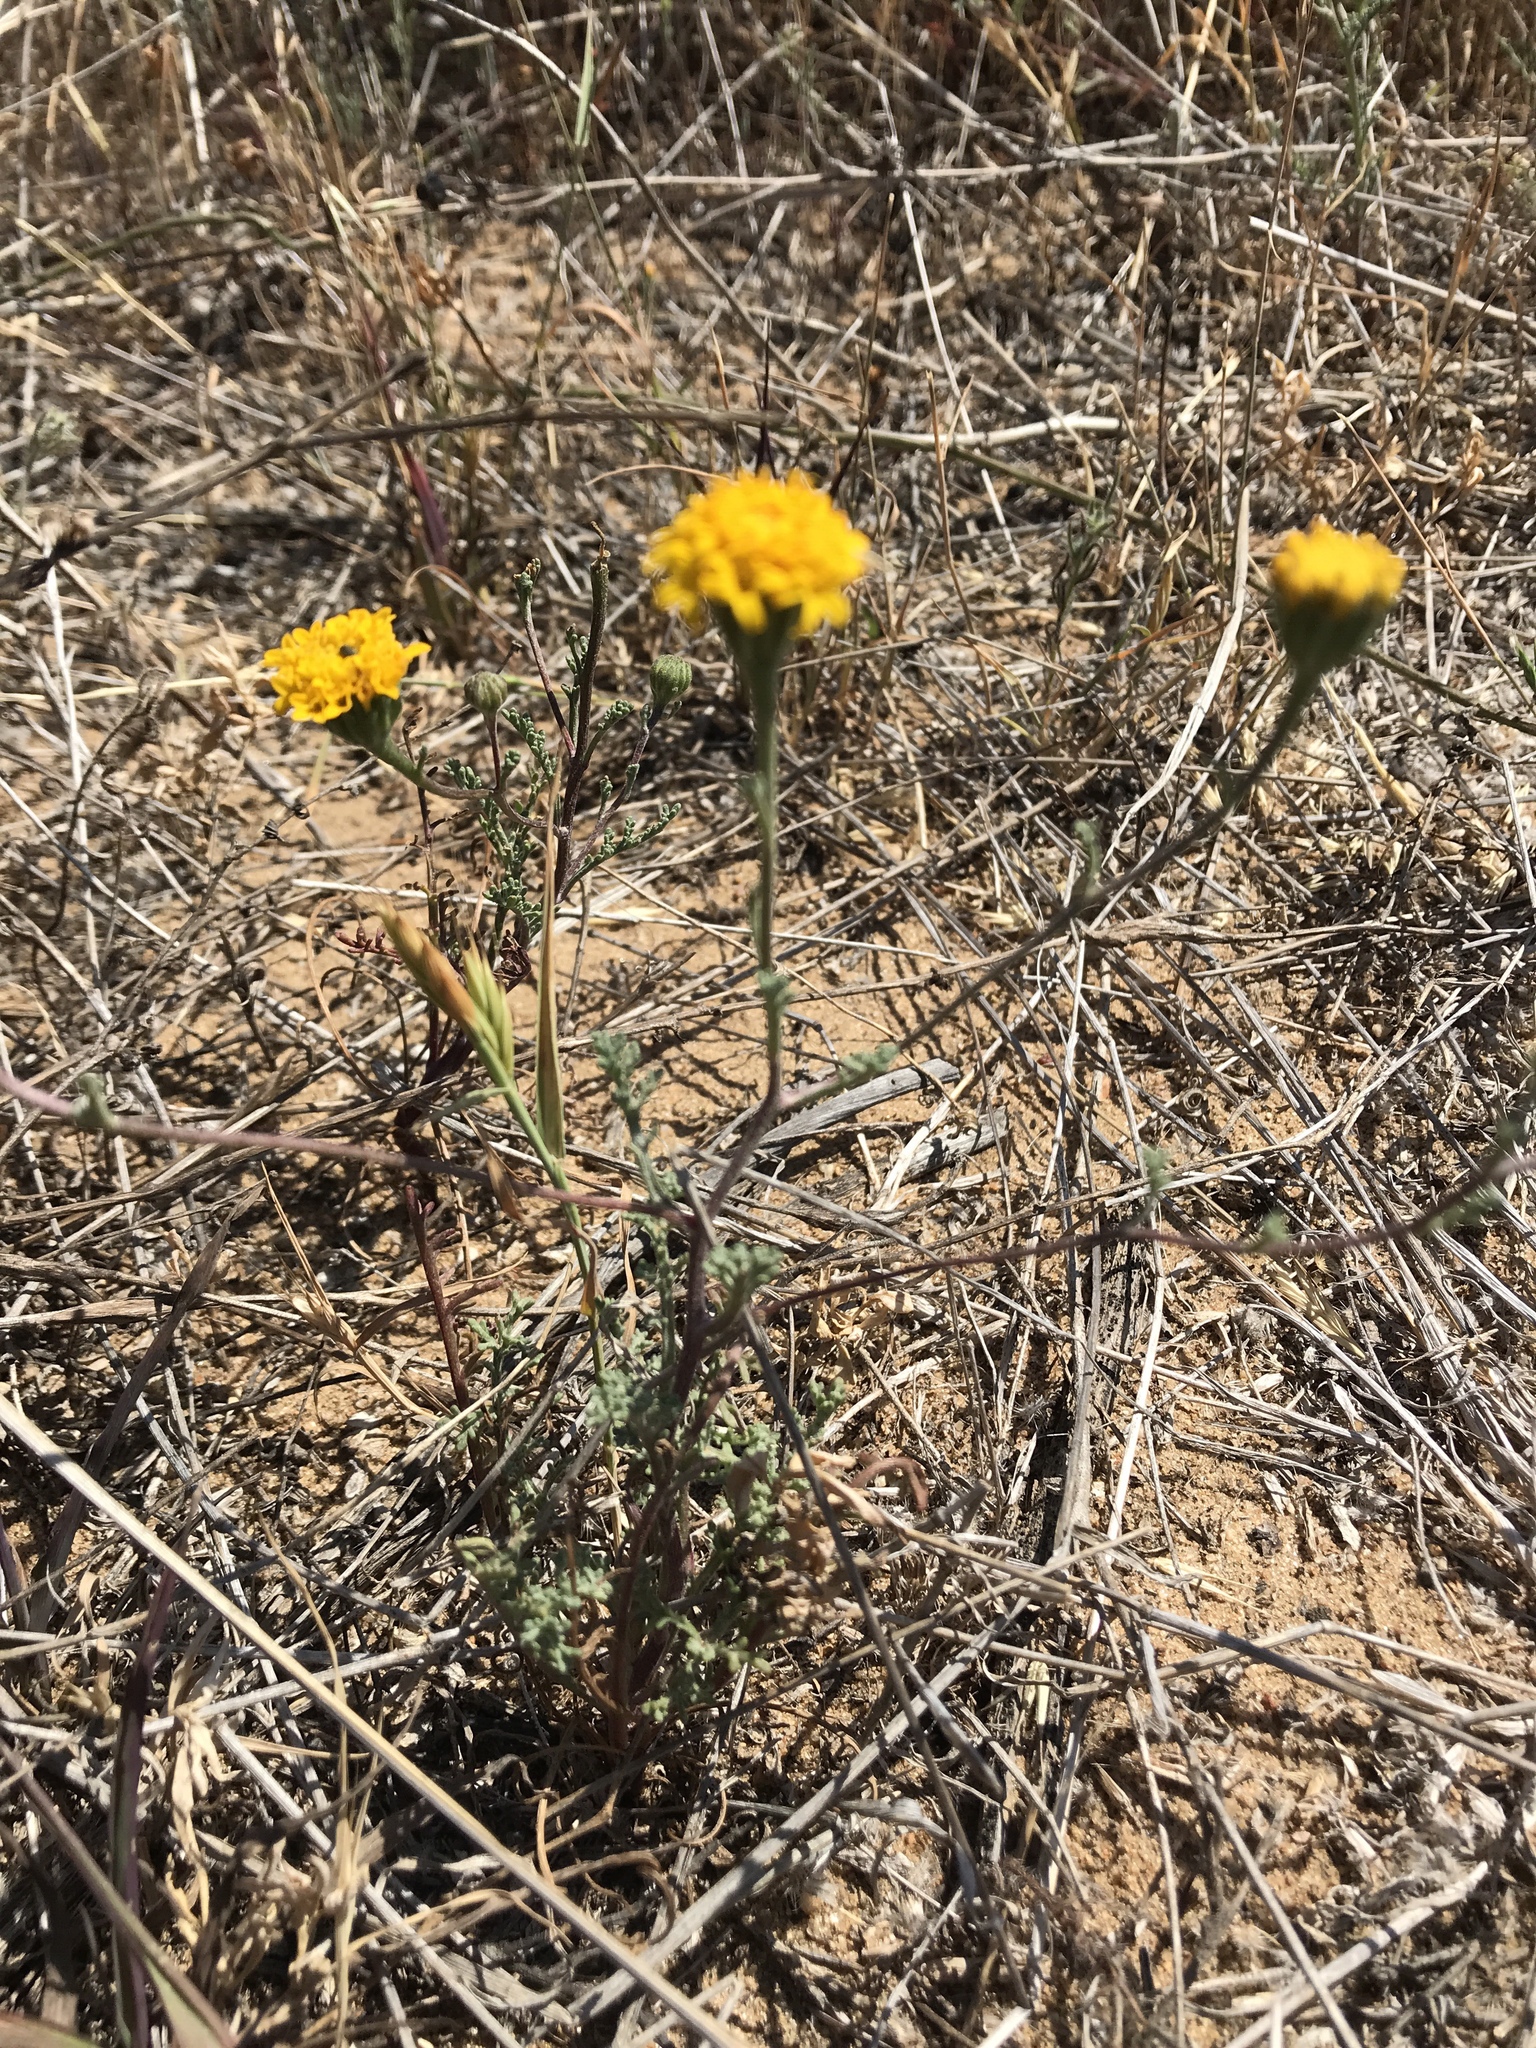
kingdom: Plantae
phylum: Tracheophyta
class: Magnoliopsida
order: Asterales
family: Asteraceae
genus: Chaenactis
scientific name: Chaenactis glabriuscula
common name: Yellow pincushion
